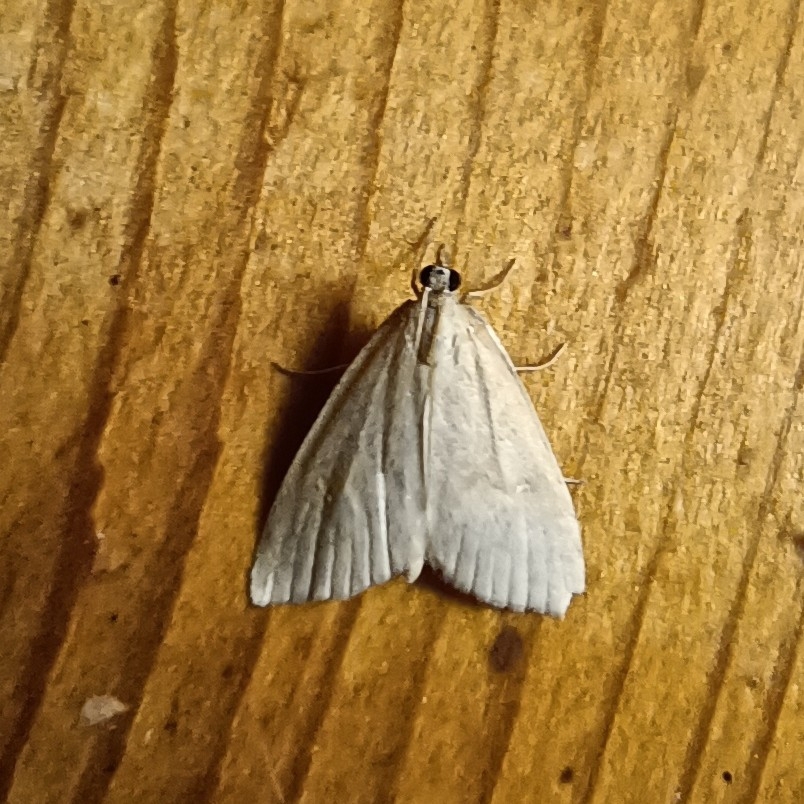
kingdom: Animalia
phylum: Arthropoda
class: Insecta
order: Lepidoptera
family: Crambidae
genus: Udea
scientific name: Udea lutealis
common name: Pale straw pearl
